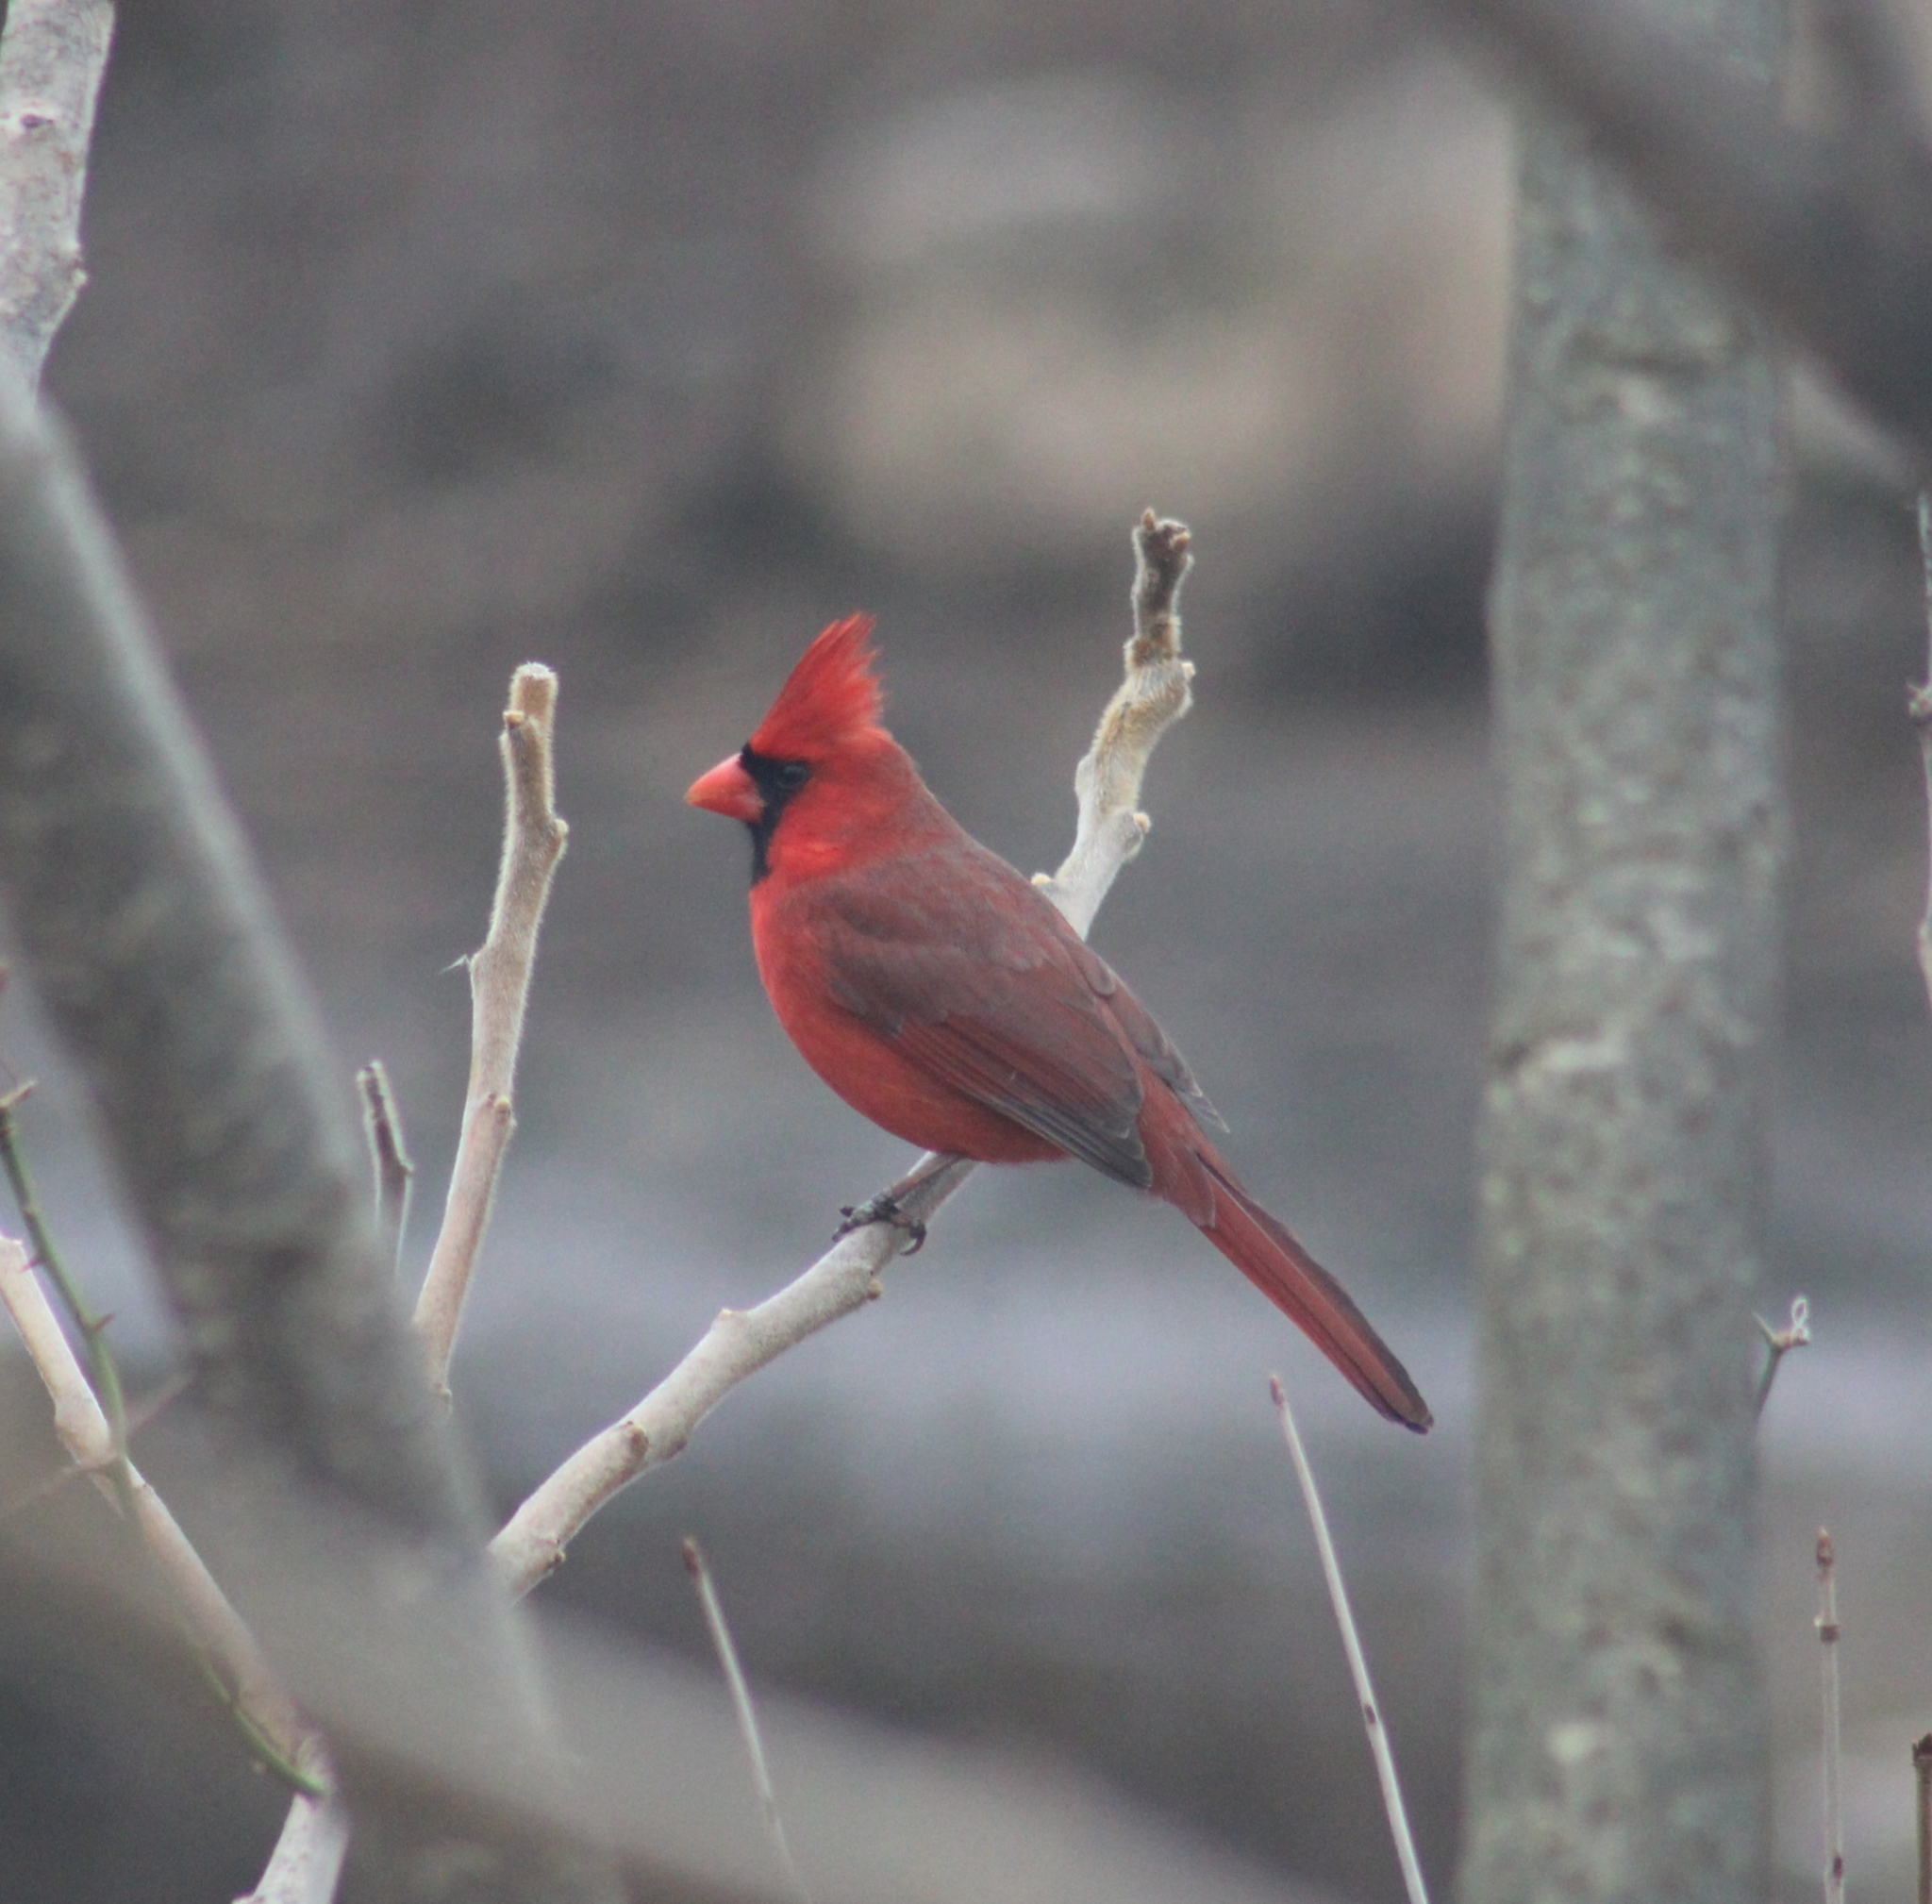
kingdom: Animalia
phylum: Chordata
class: Aves
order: Passeriformes
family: Cardinalidae
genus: Cardinalis
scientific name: Cardinalis cardinalis
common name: Northern cardinal
